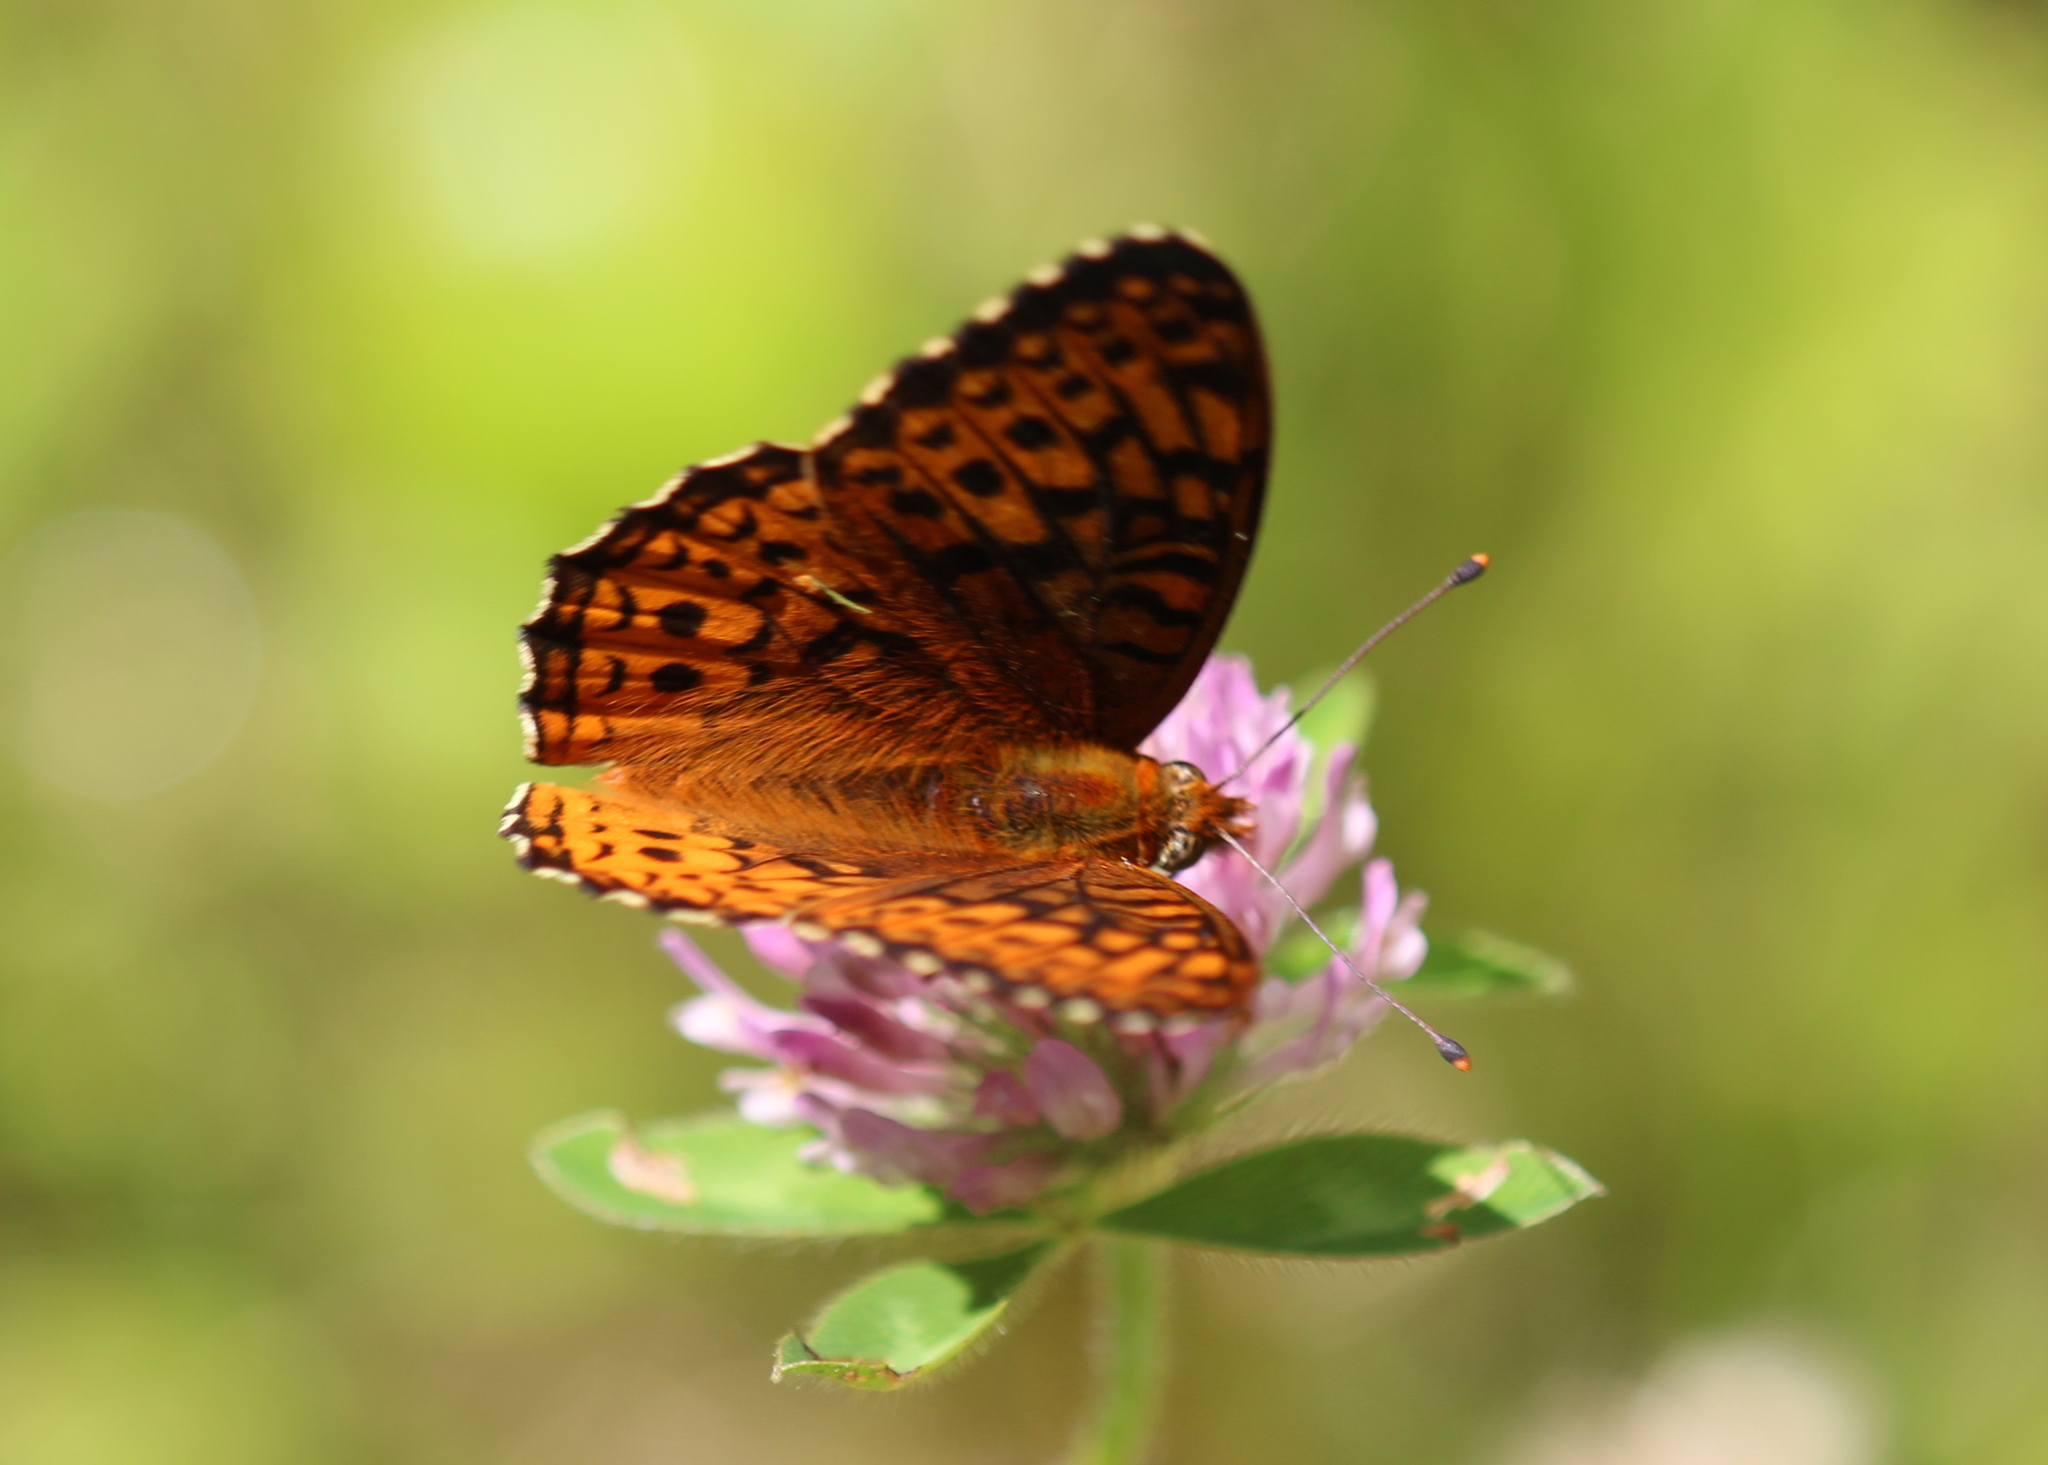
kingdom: Animalia
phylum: Arthropoda
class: Insecta
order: Lepidoptera
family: Nymphalidae
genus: Speyeria
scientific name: Speyeria atlantis
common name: Atlantis fritillary
